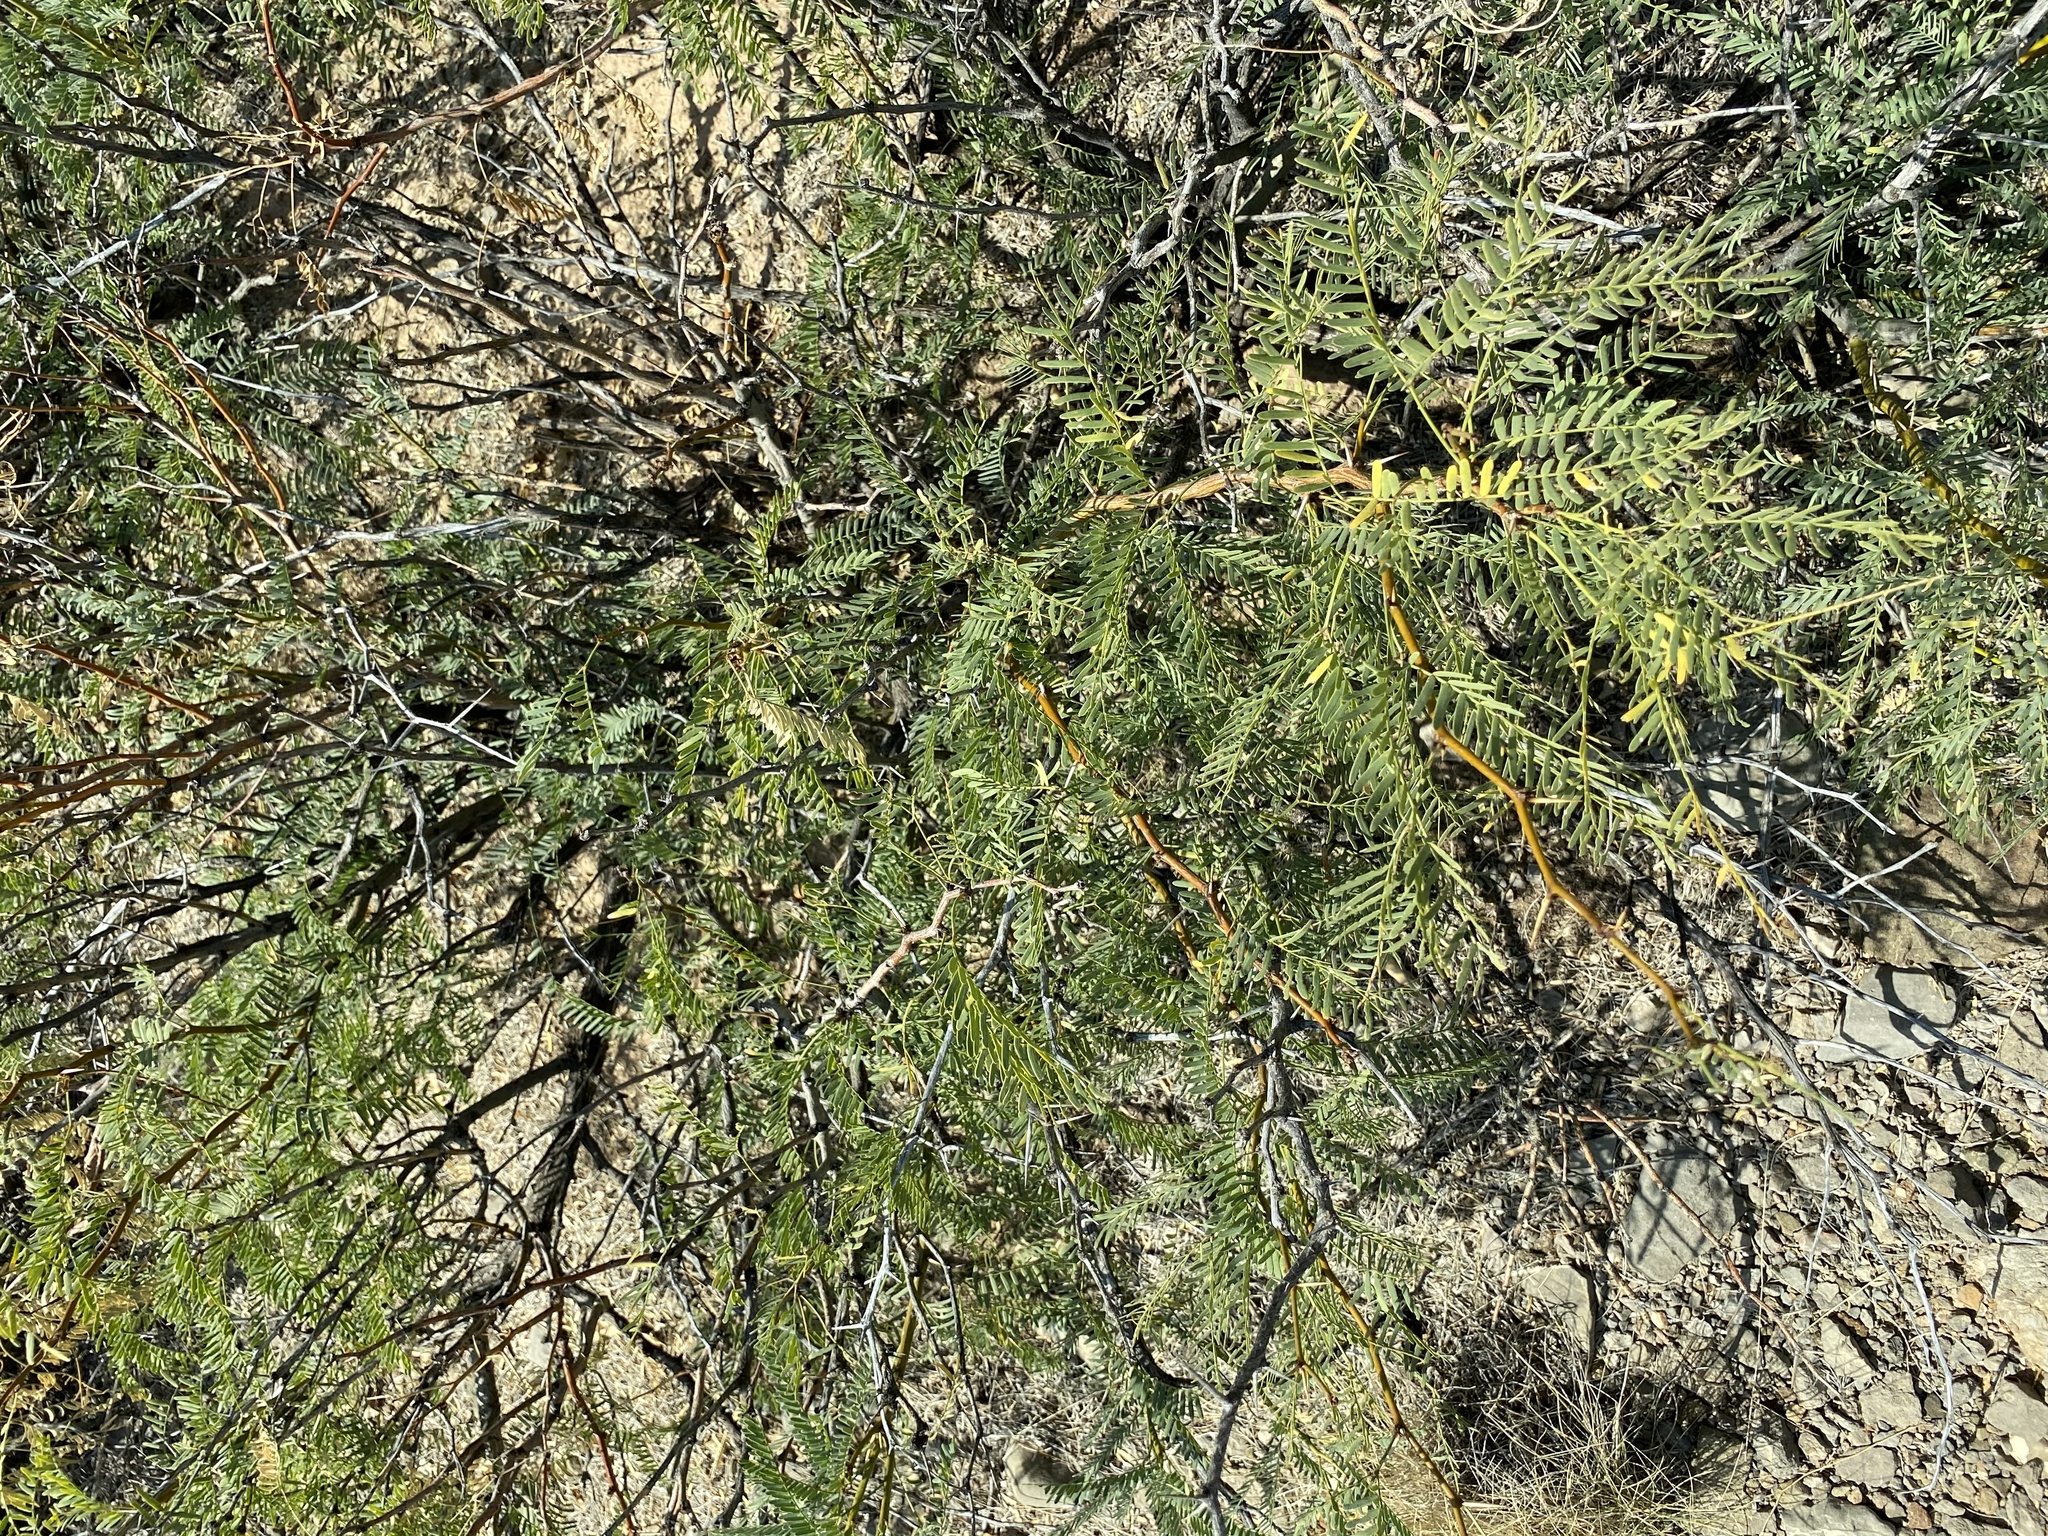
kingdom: Plantae
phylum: Tracheophyta
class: Magnoliopsida
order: Fabales
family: Fabaceae
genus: Prosopis
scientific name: Prosopis glandulosa
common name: Honey mesquite
